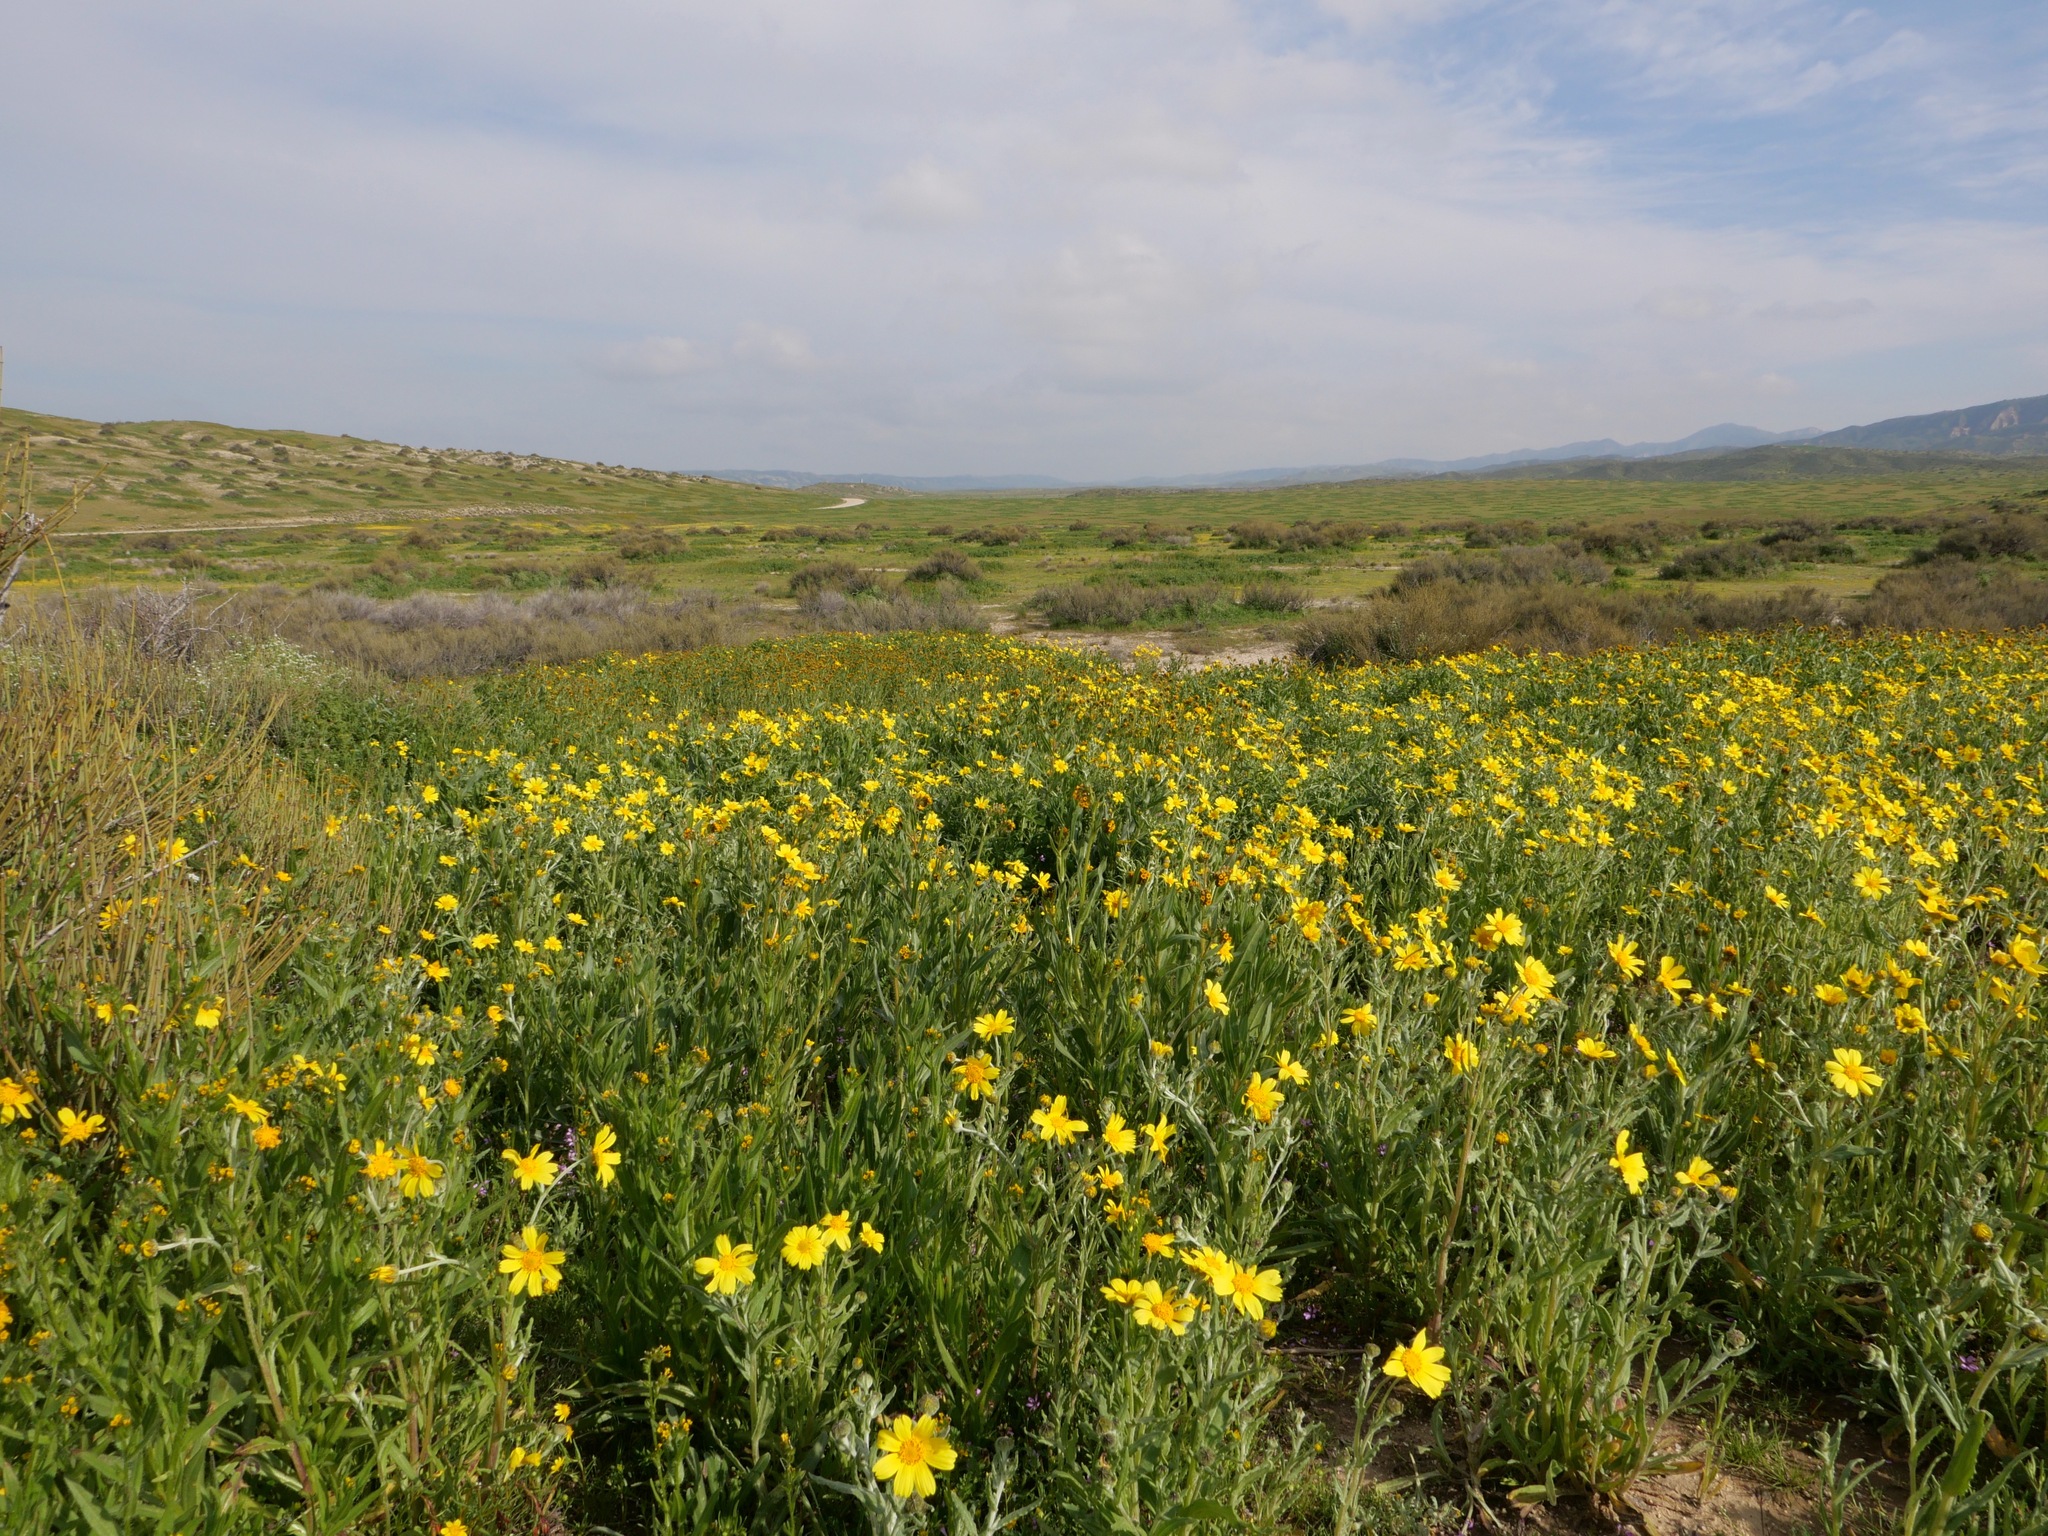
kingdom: Plantae
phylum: Tracheophyta
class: Magnoliopsida
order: Asterales
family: Asteraceae
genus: Monolopia
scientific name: Monolopia lanceolata
